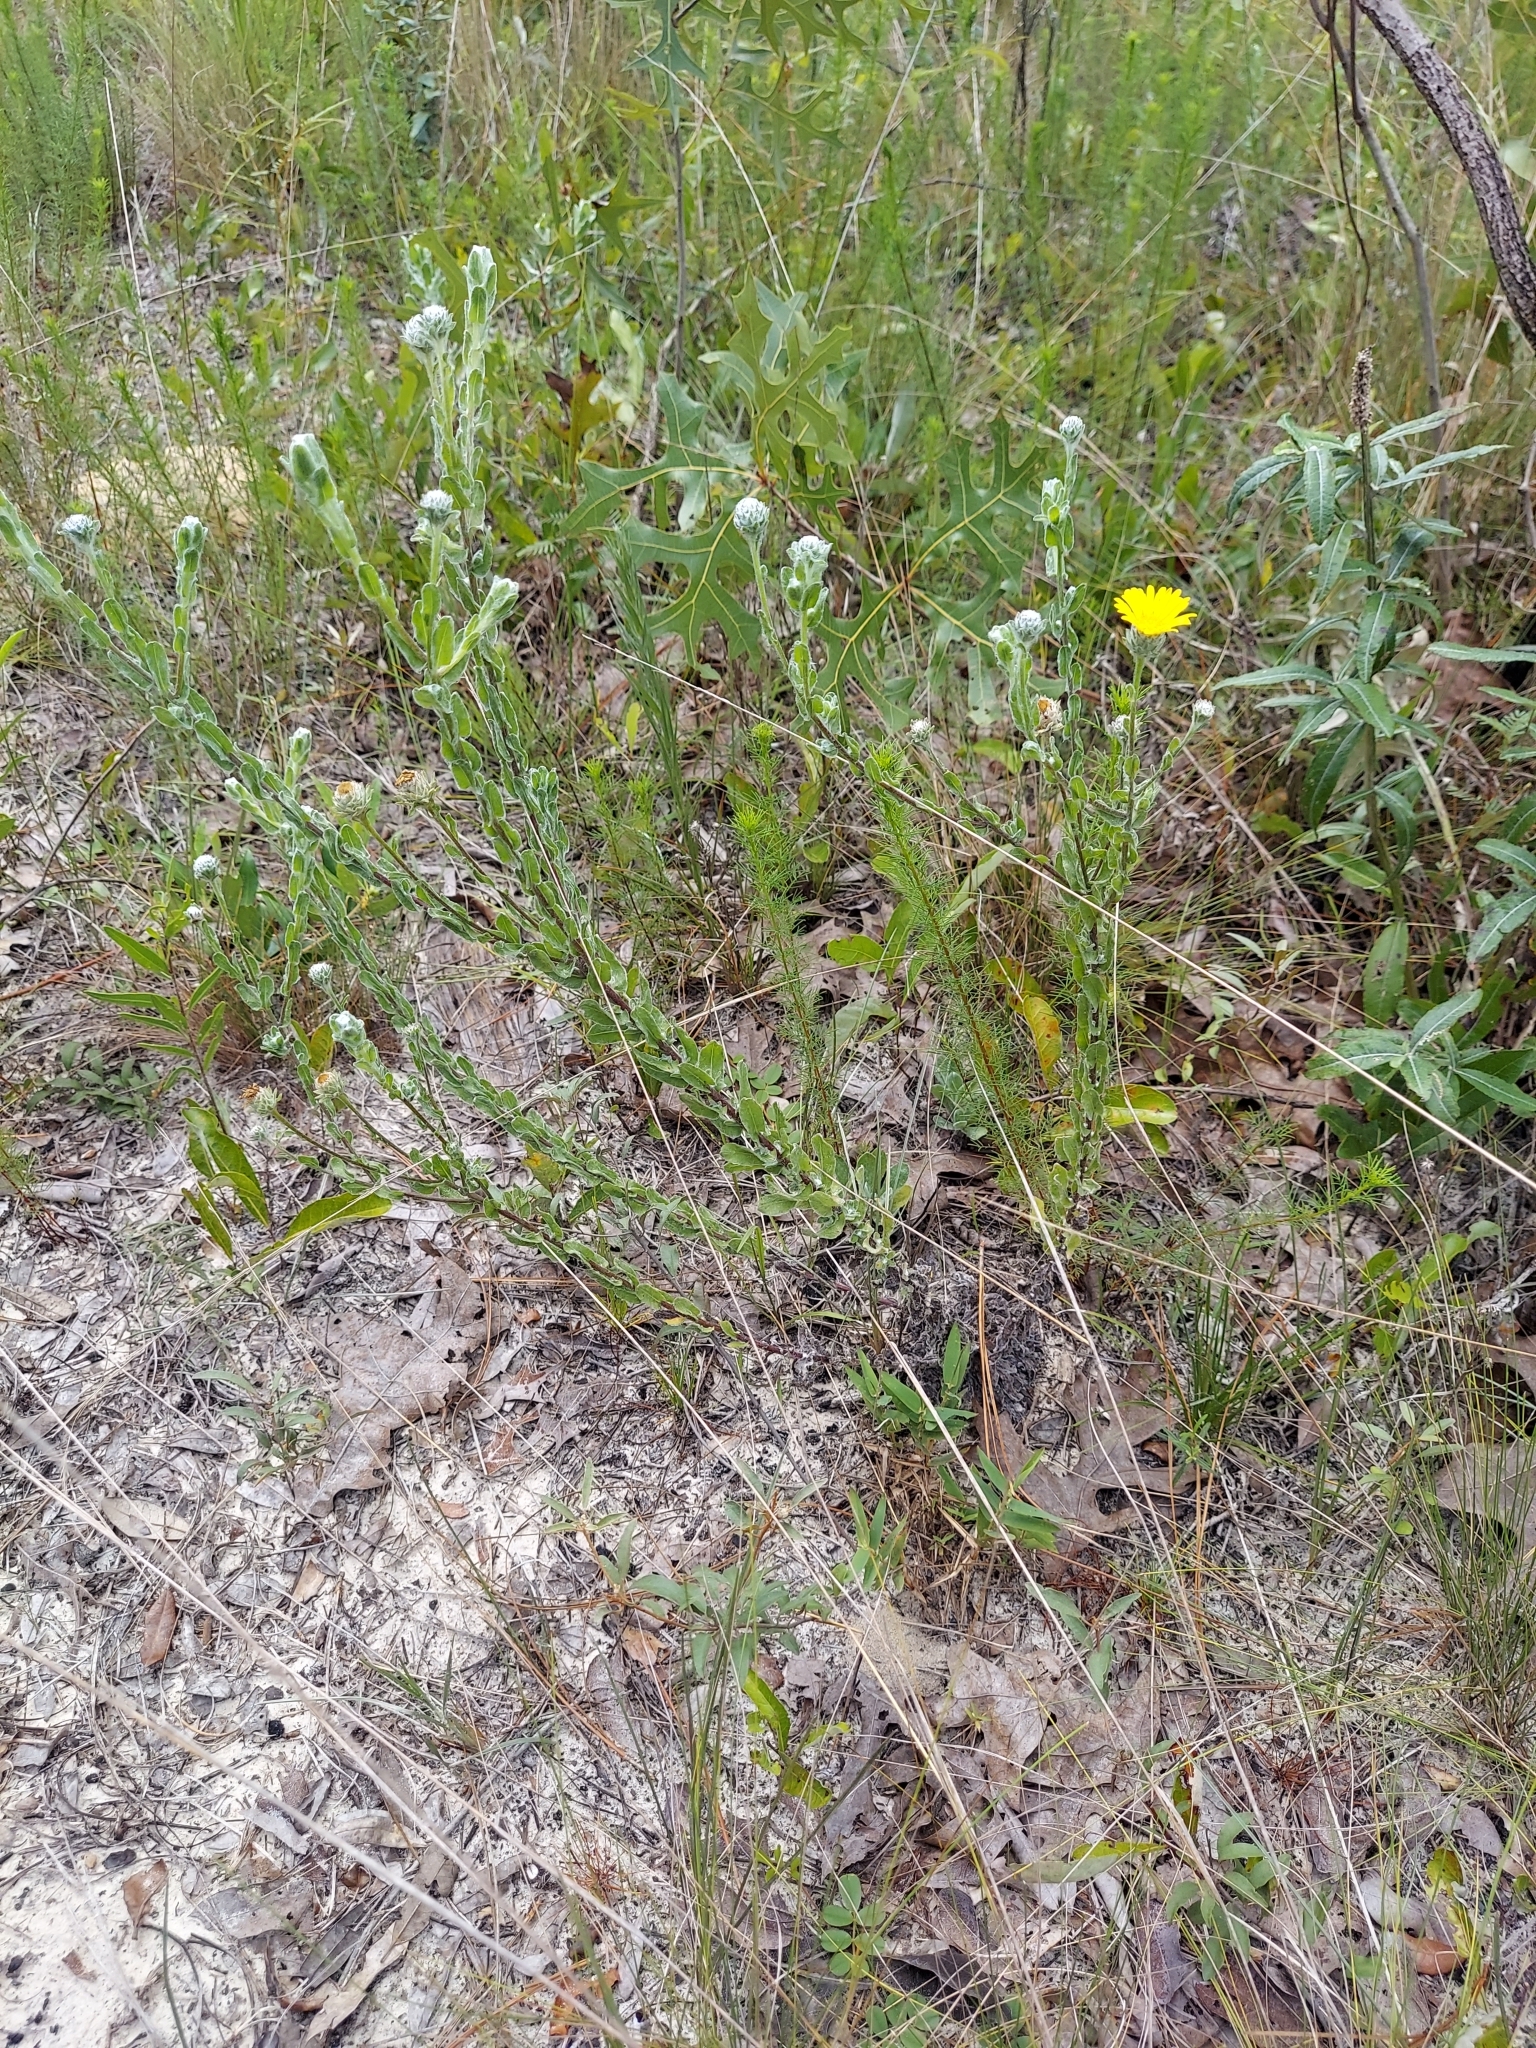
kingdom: Plantae
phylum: Tracheophyta
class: Magnoliopsida
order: Asterales
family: Asteraceae
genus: Chrysopsis
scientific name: Chrysopsis gossypina
